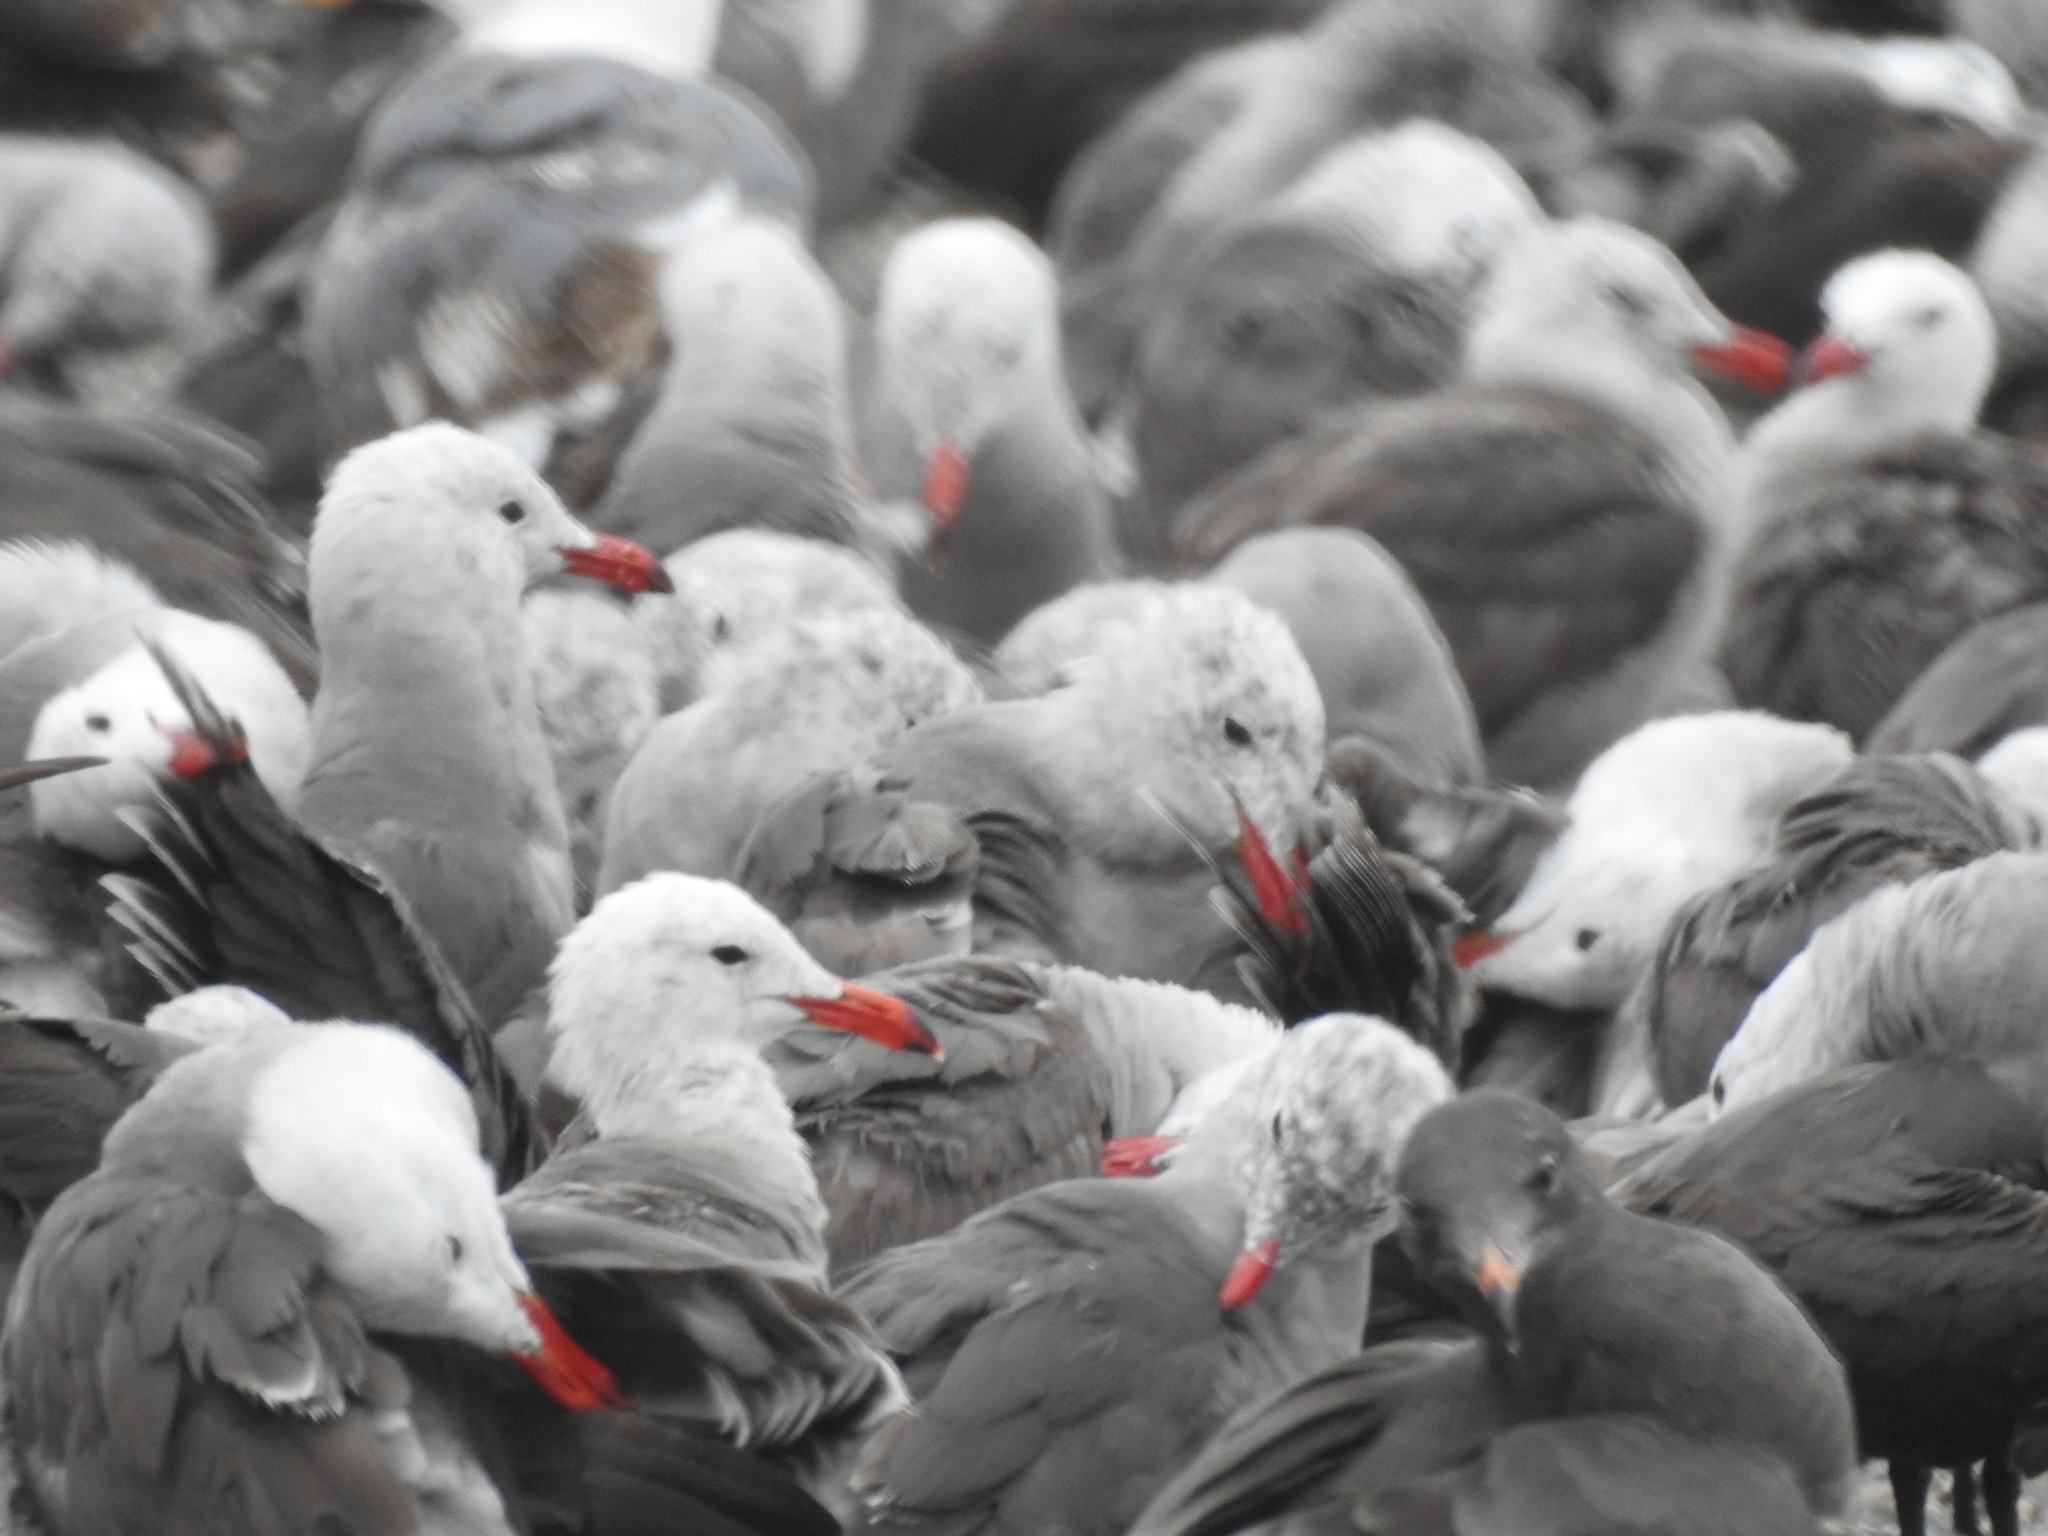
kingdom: Animalia
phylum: Chordata
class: Aves
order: Charadriiformes
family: Laridae
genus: Larus
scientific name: Larus heermanni
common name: Heermann's gull
